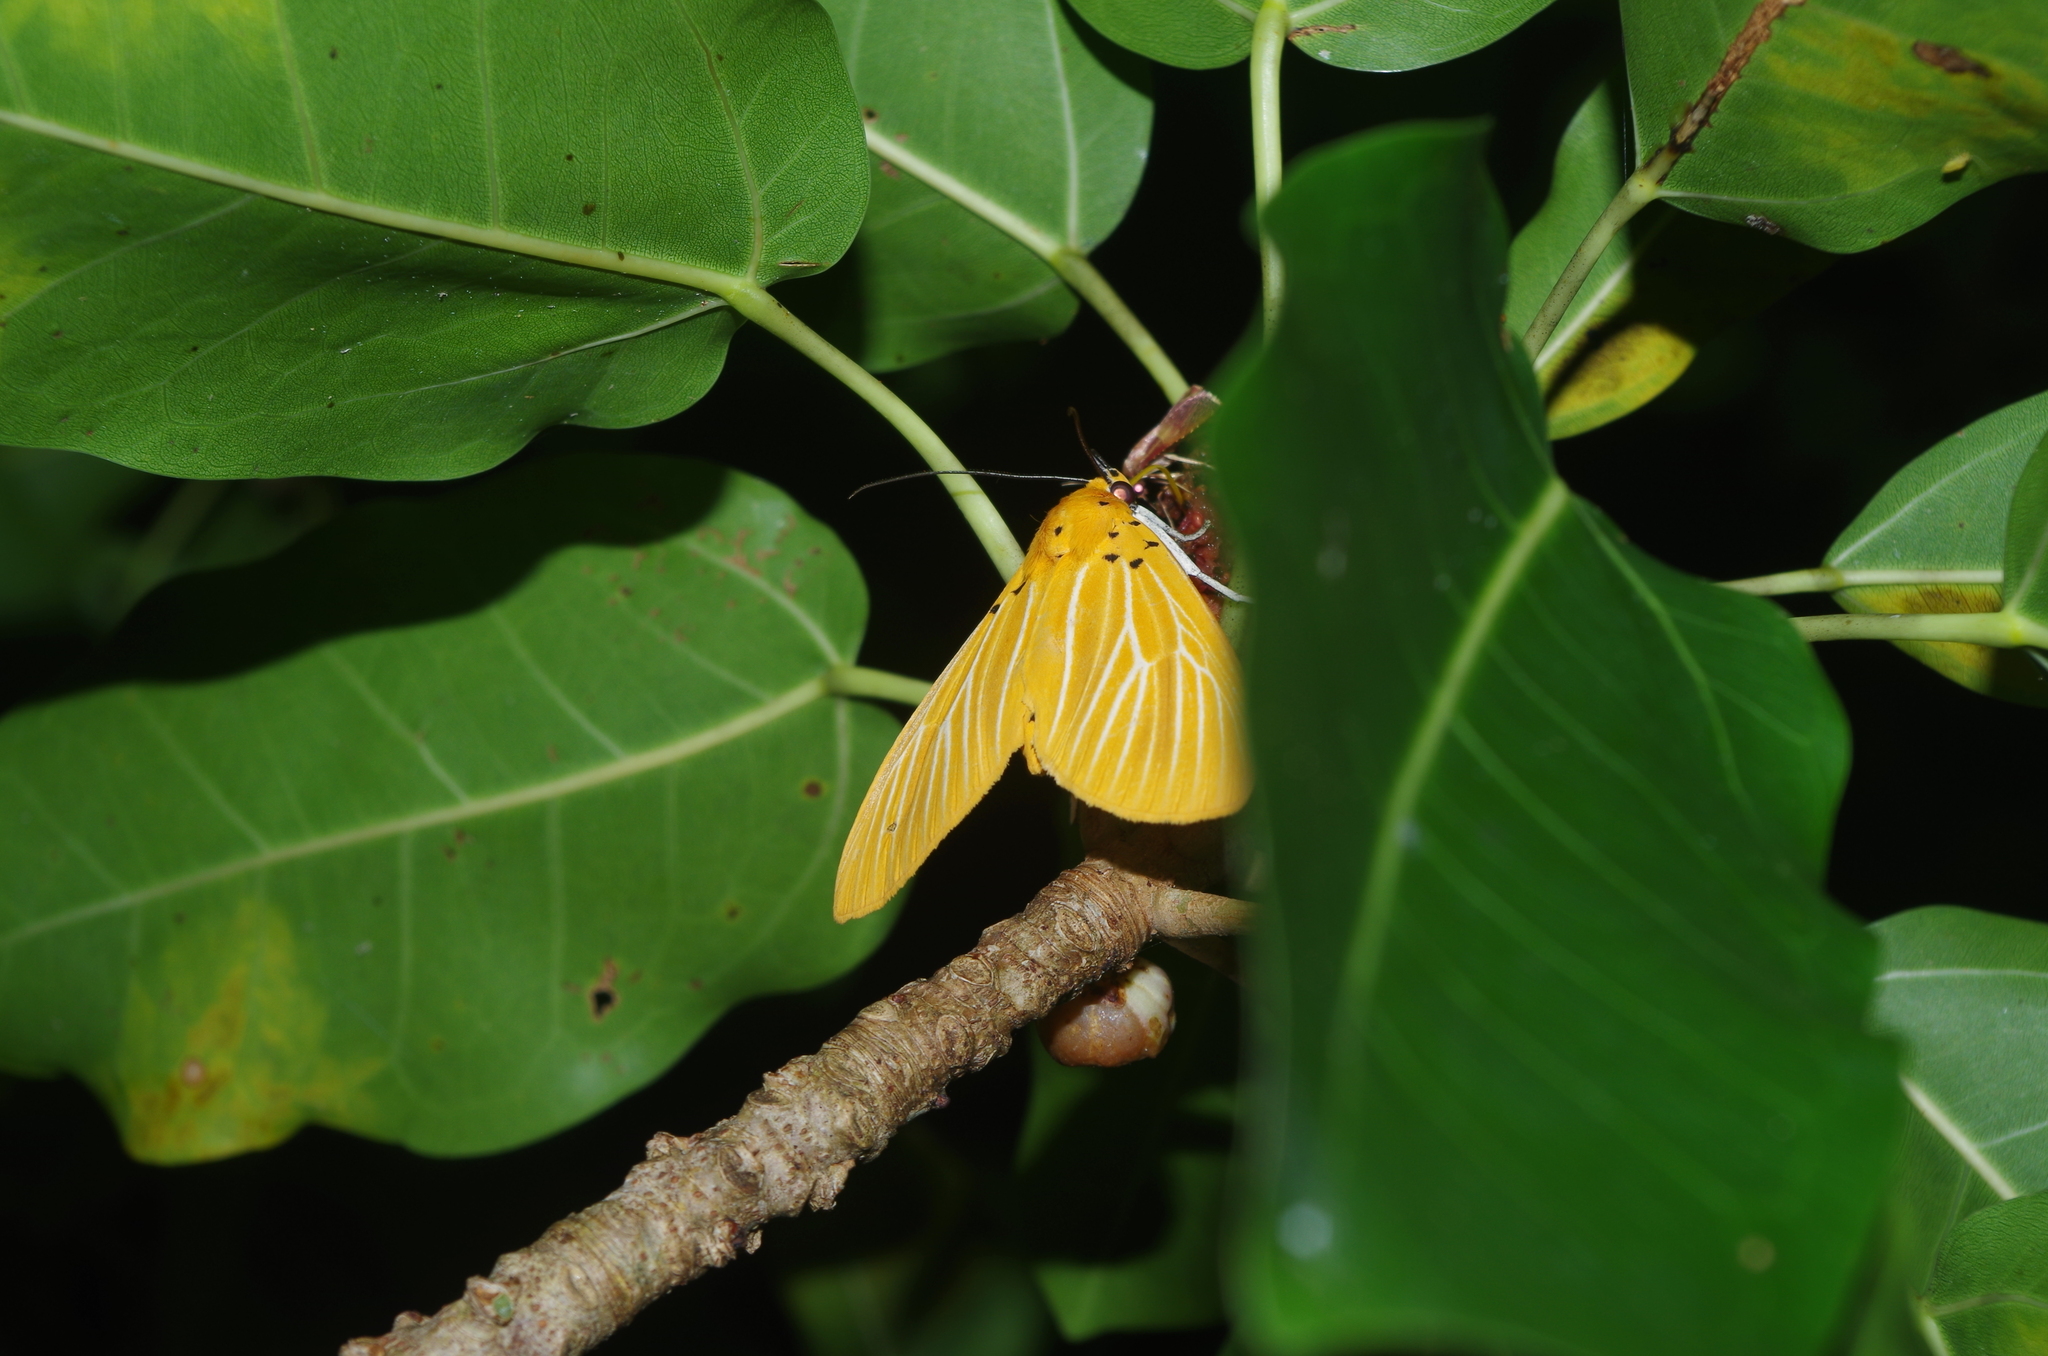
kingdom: Animalia
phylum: Arthropoda
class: Insecta
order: Lepidoptera
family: Erebidae
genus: Asota
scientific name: Asota egens
